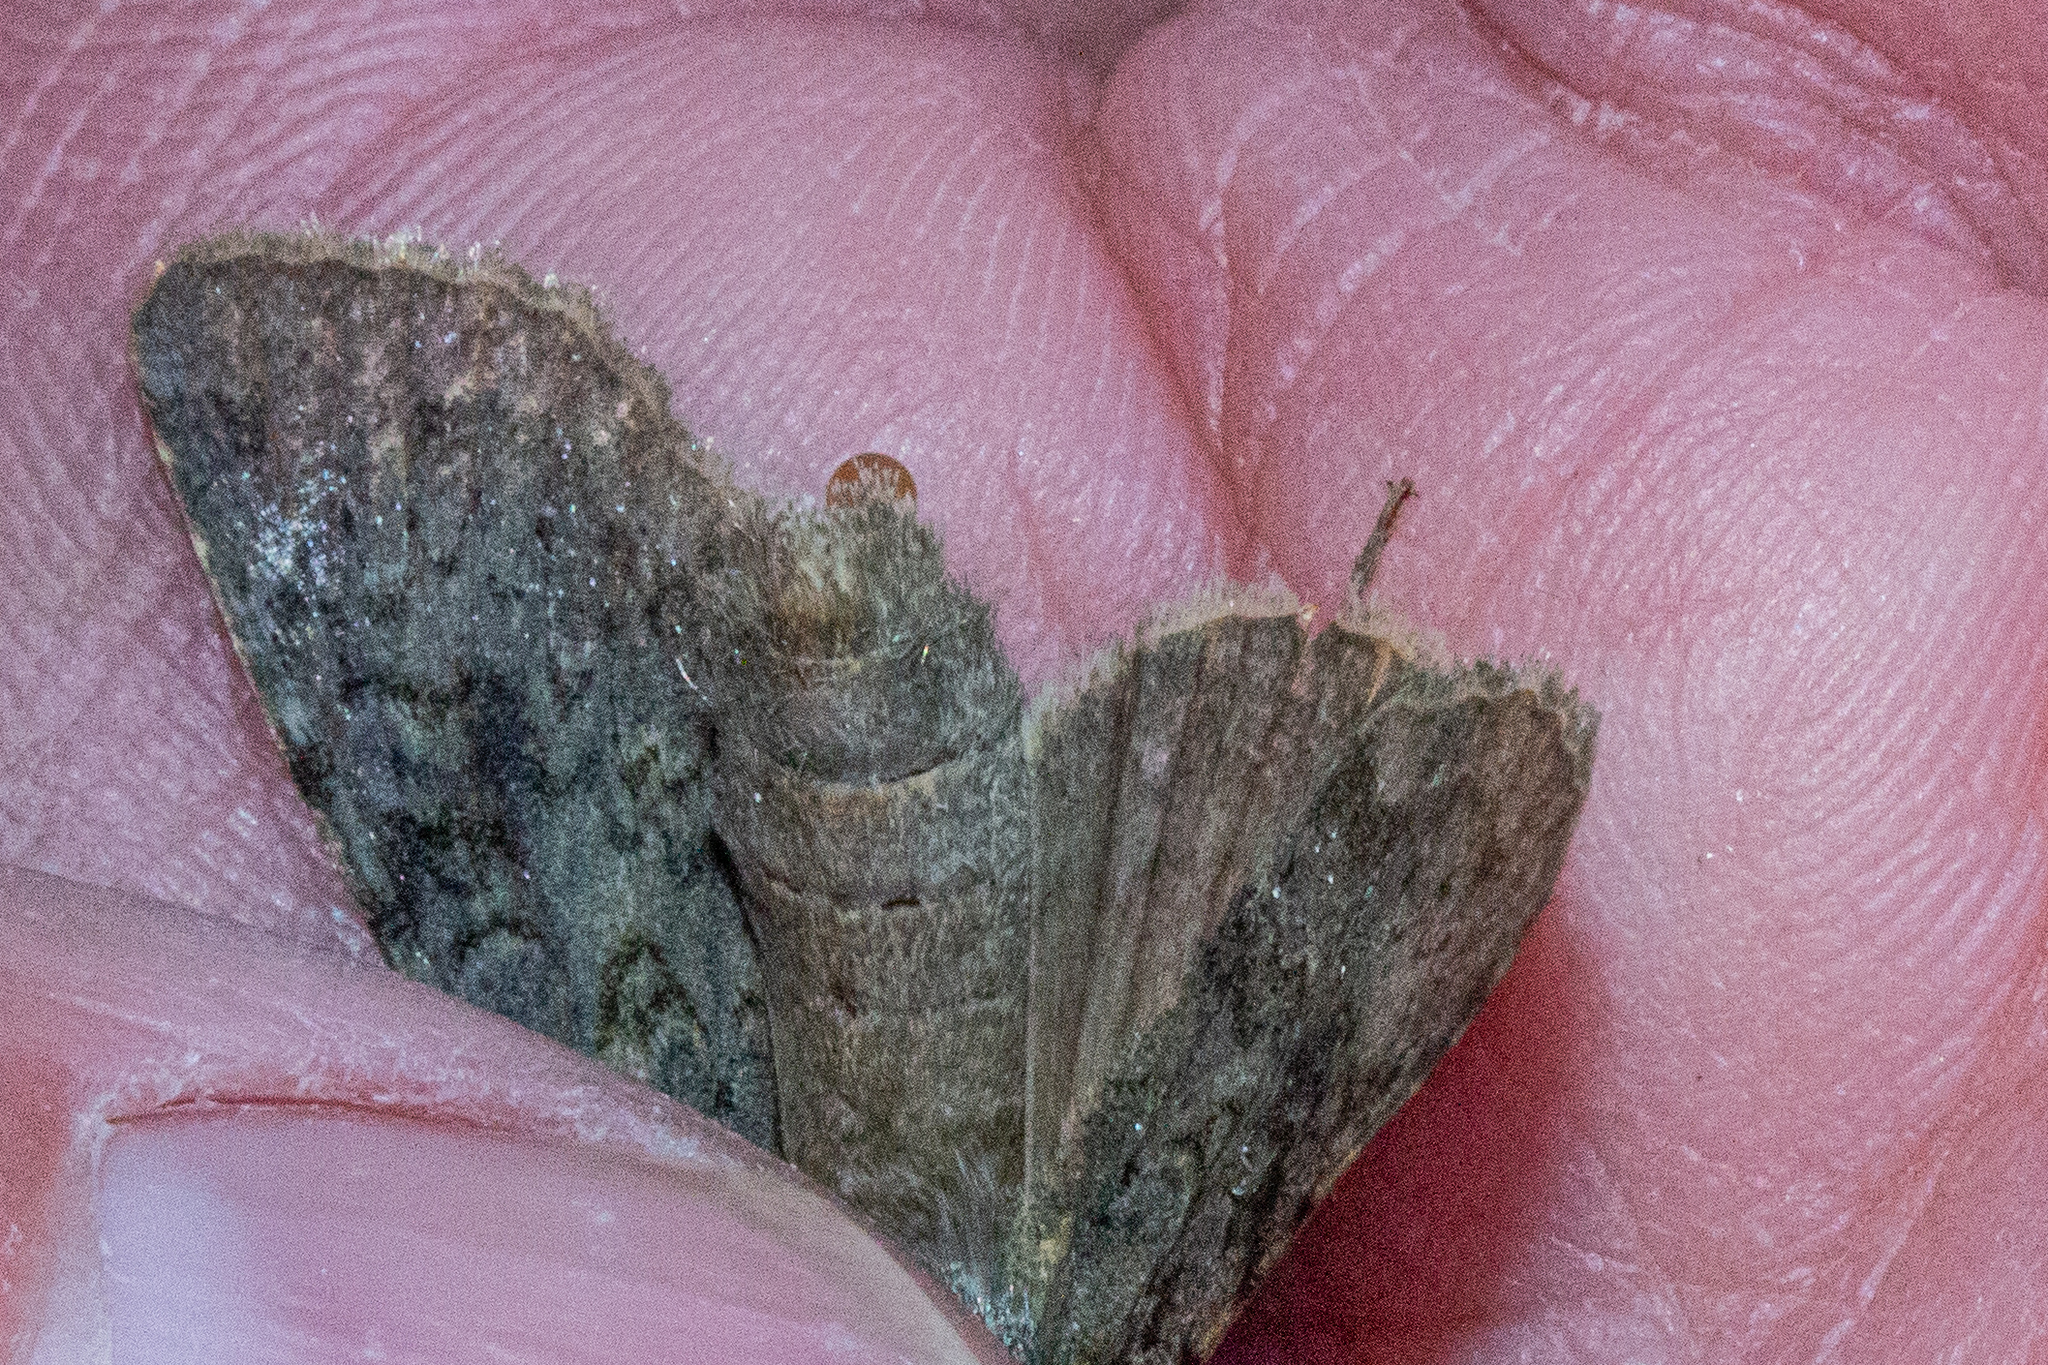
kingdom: Animalia
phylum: Arthropoda
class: Insecta
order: Lepidoptera
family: Noctuidae
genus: Ichneutica
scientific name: Ichneutica
